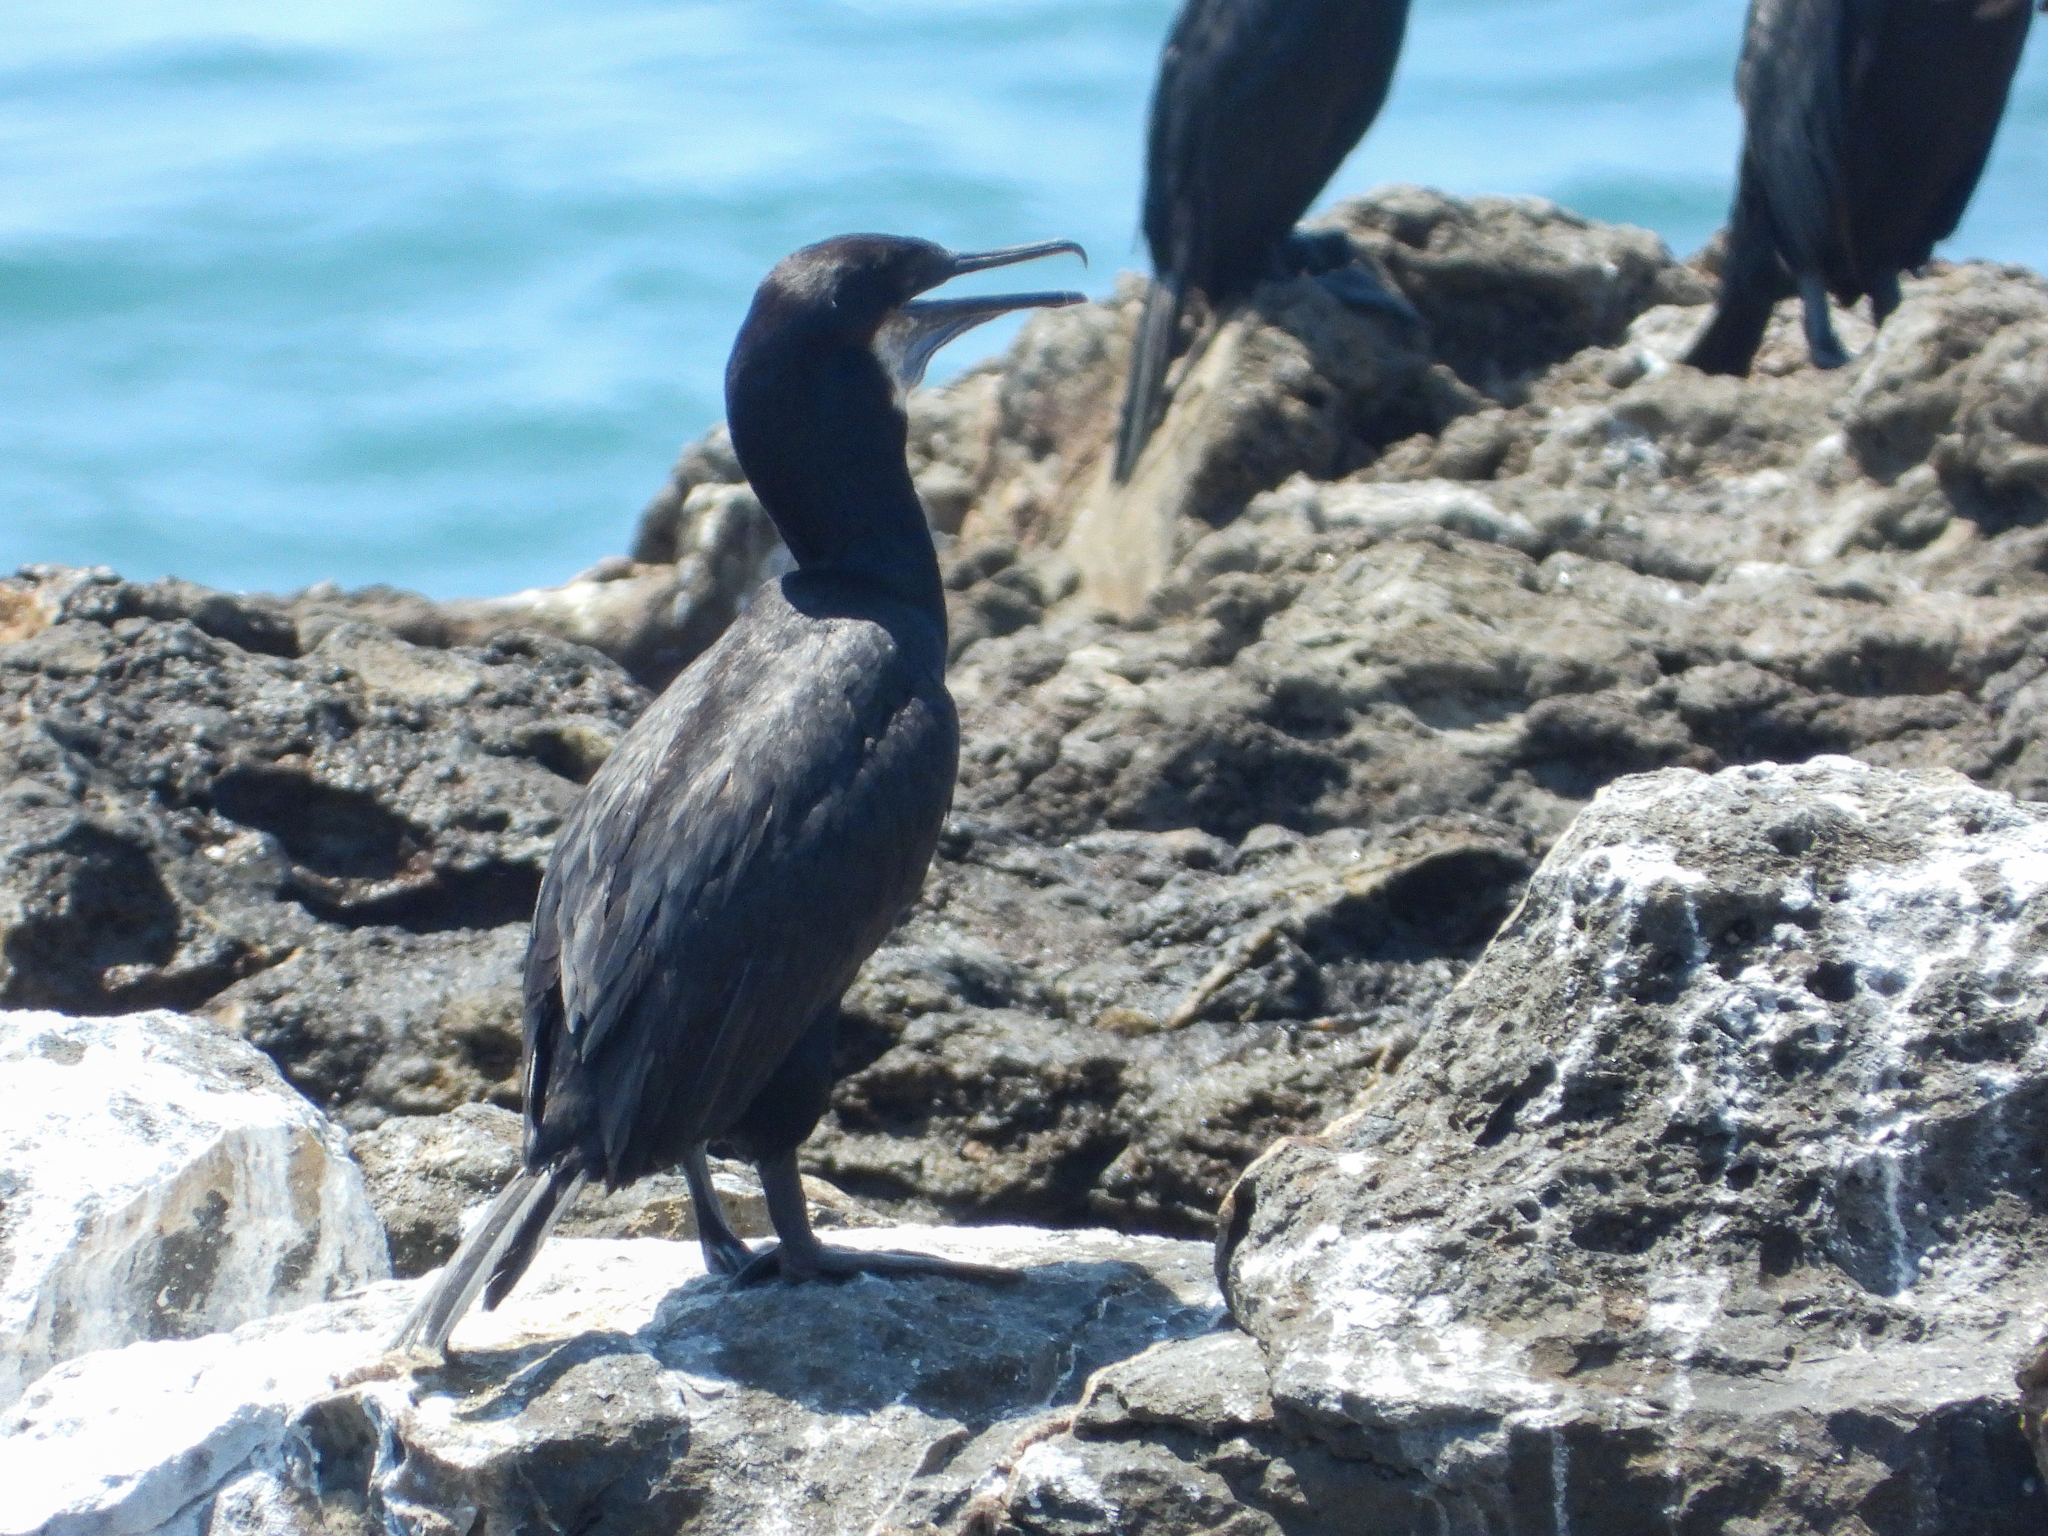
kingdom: Animalia
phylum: Chordata
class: Aves
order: Suliformes
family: Phalacrocoracidae
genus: Urile
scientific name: Urile penicillatus
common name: Brandt's cormorant
